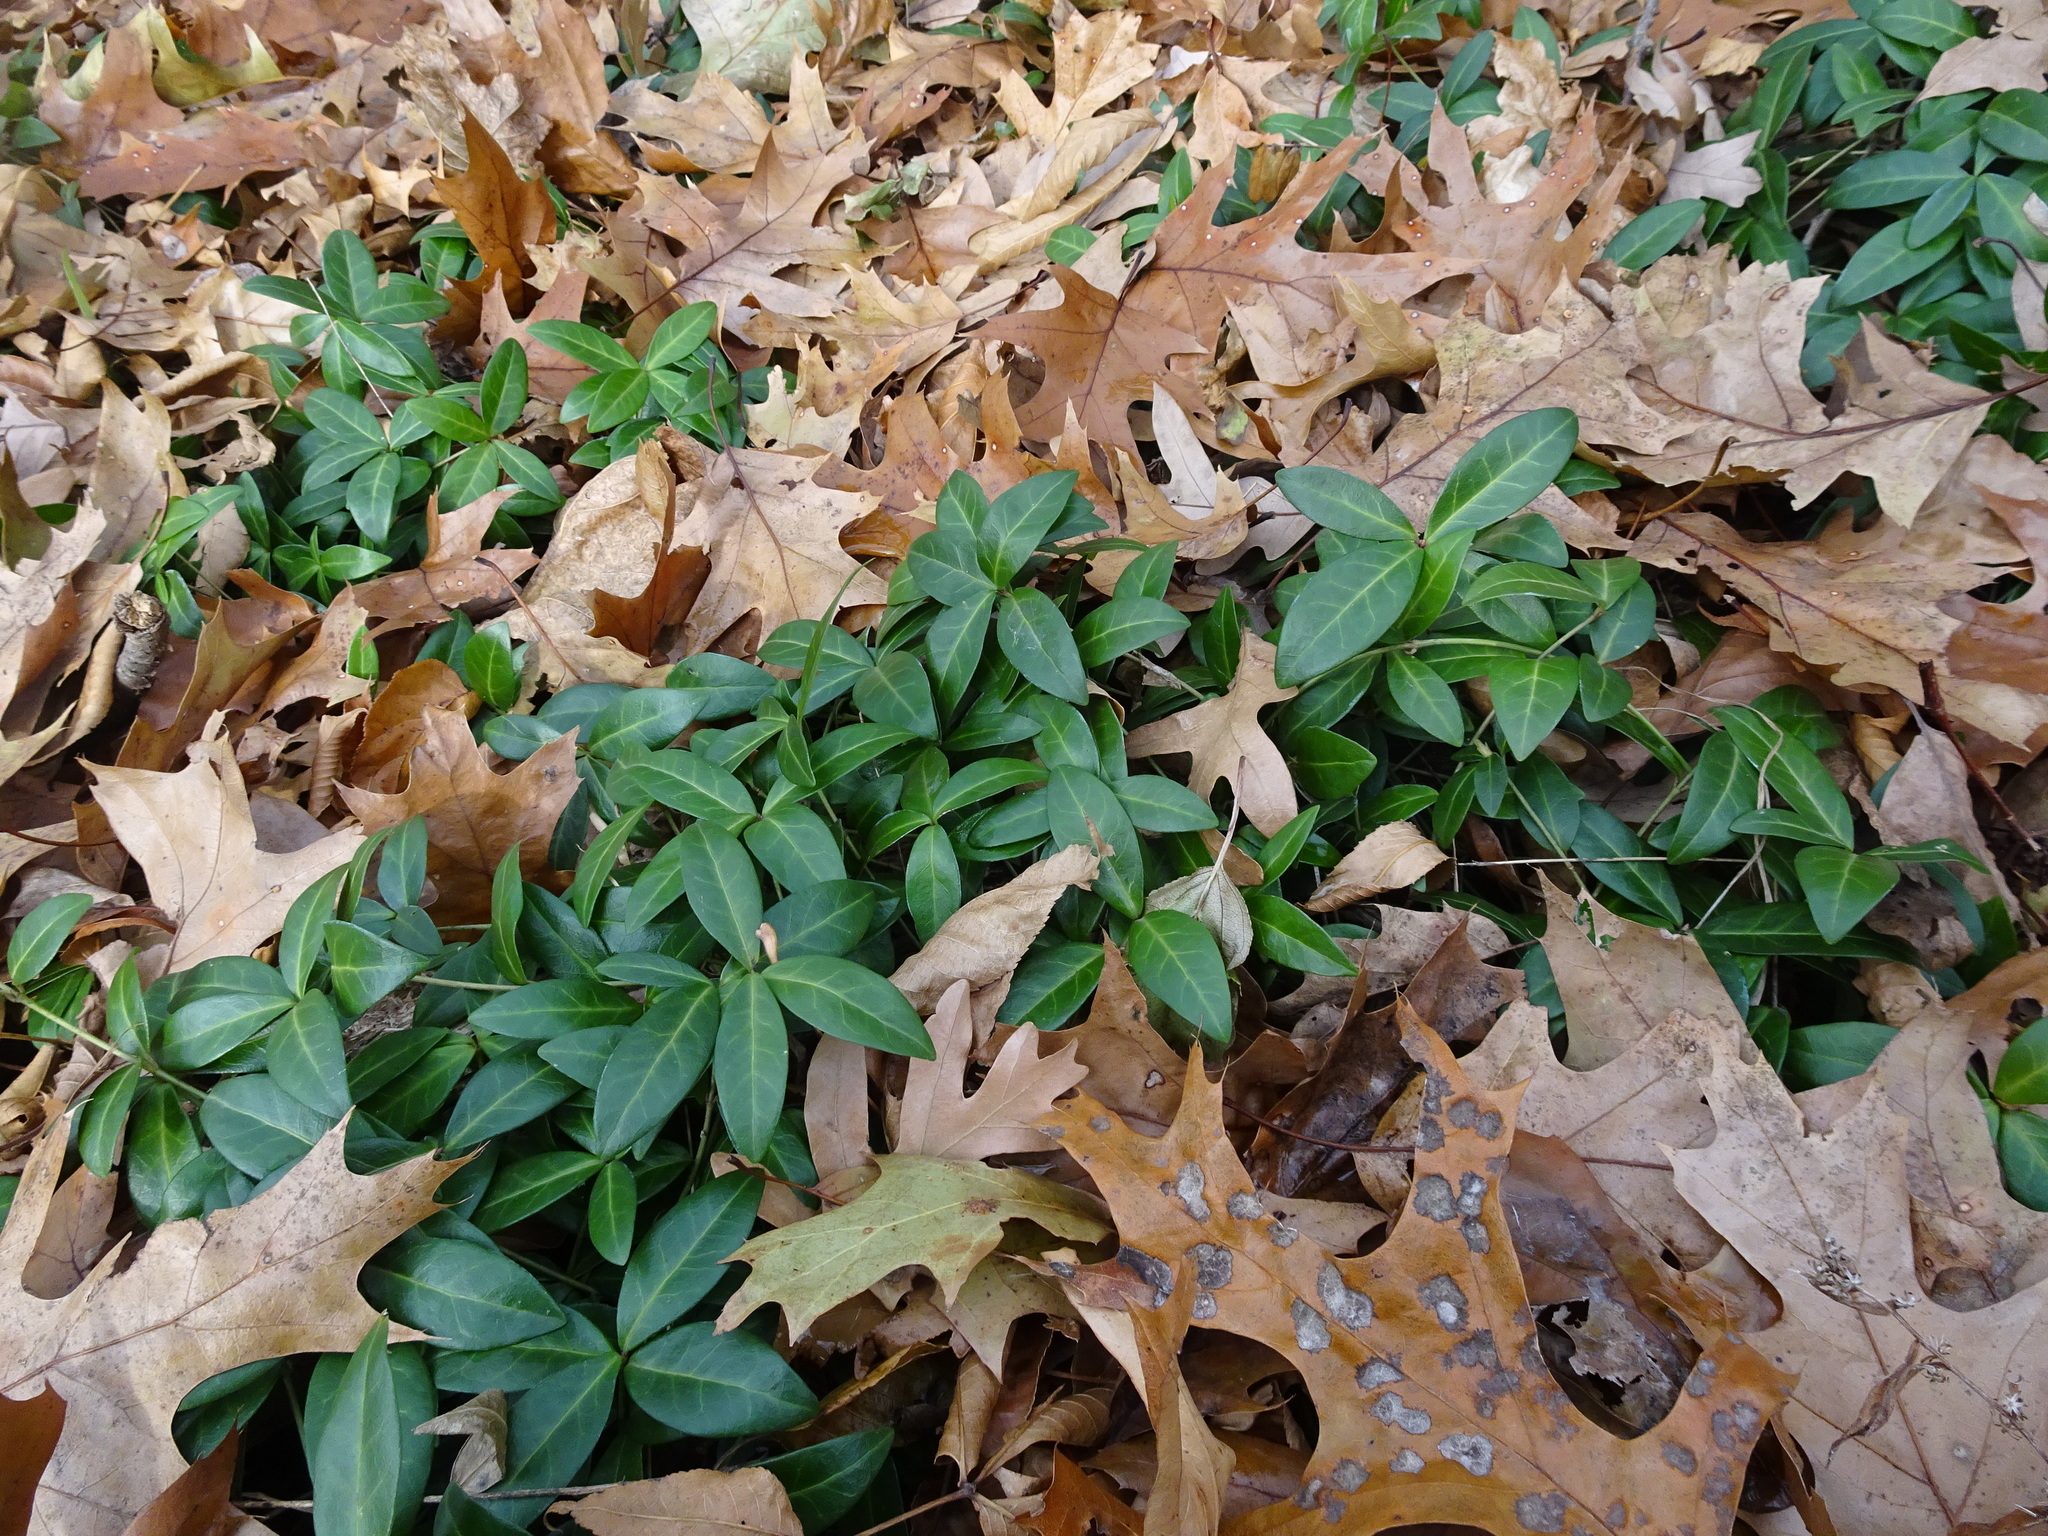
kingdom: Plantae
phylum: Tracheophyta
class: Magnoliopsida
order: Gentianales
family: Apocynaceae
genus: Vinca
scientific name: Vinca minor
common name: Lesser periwinkle
